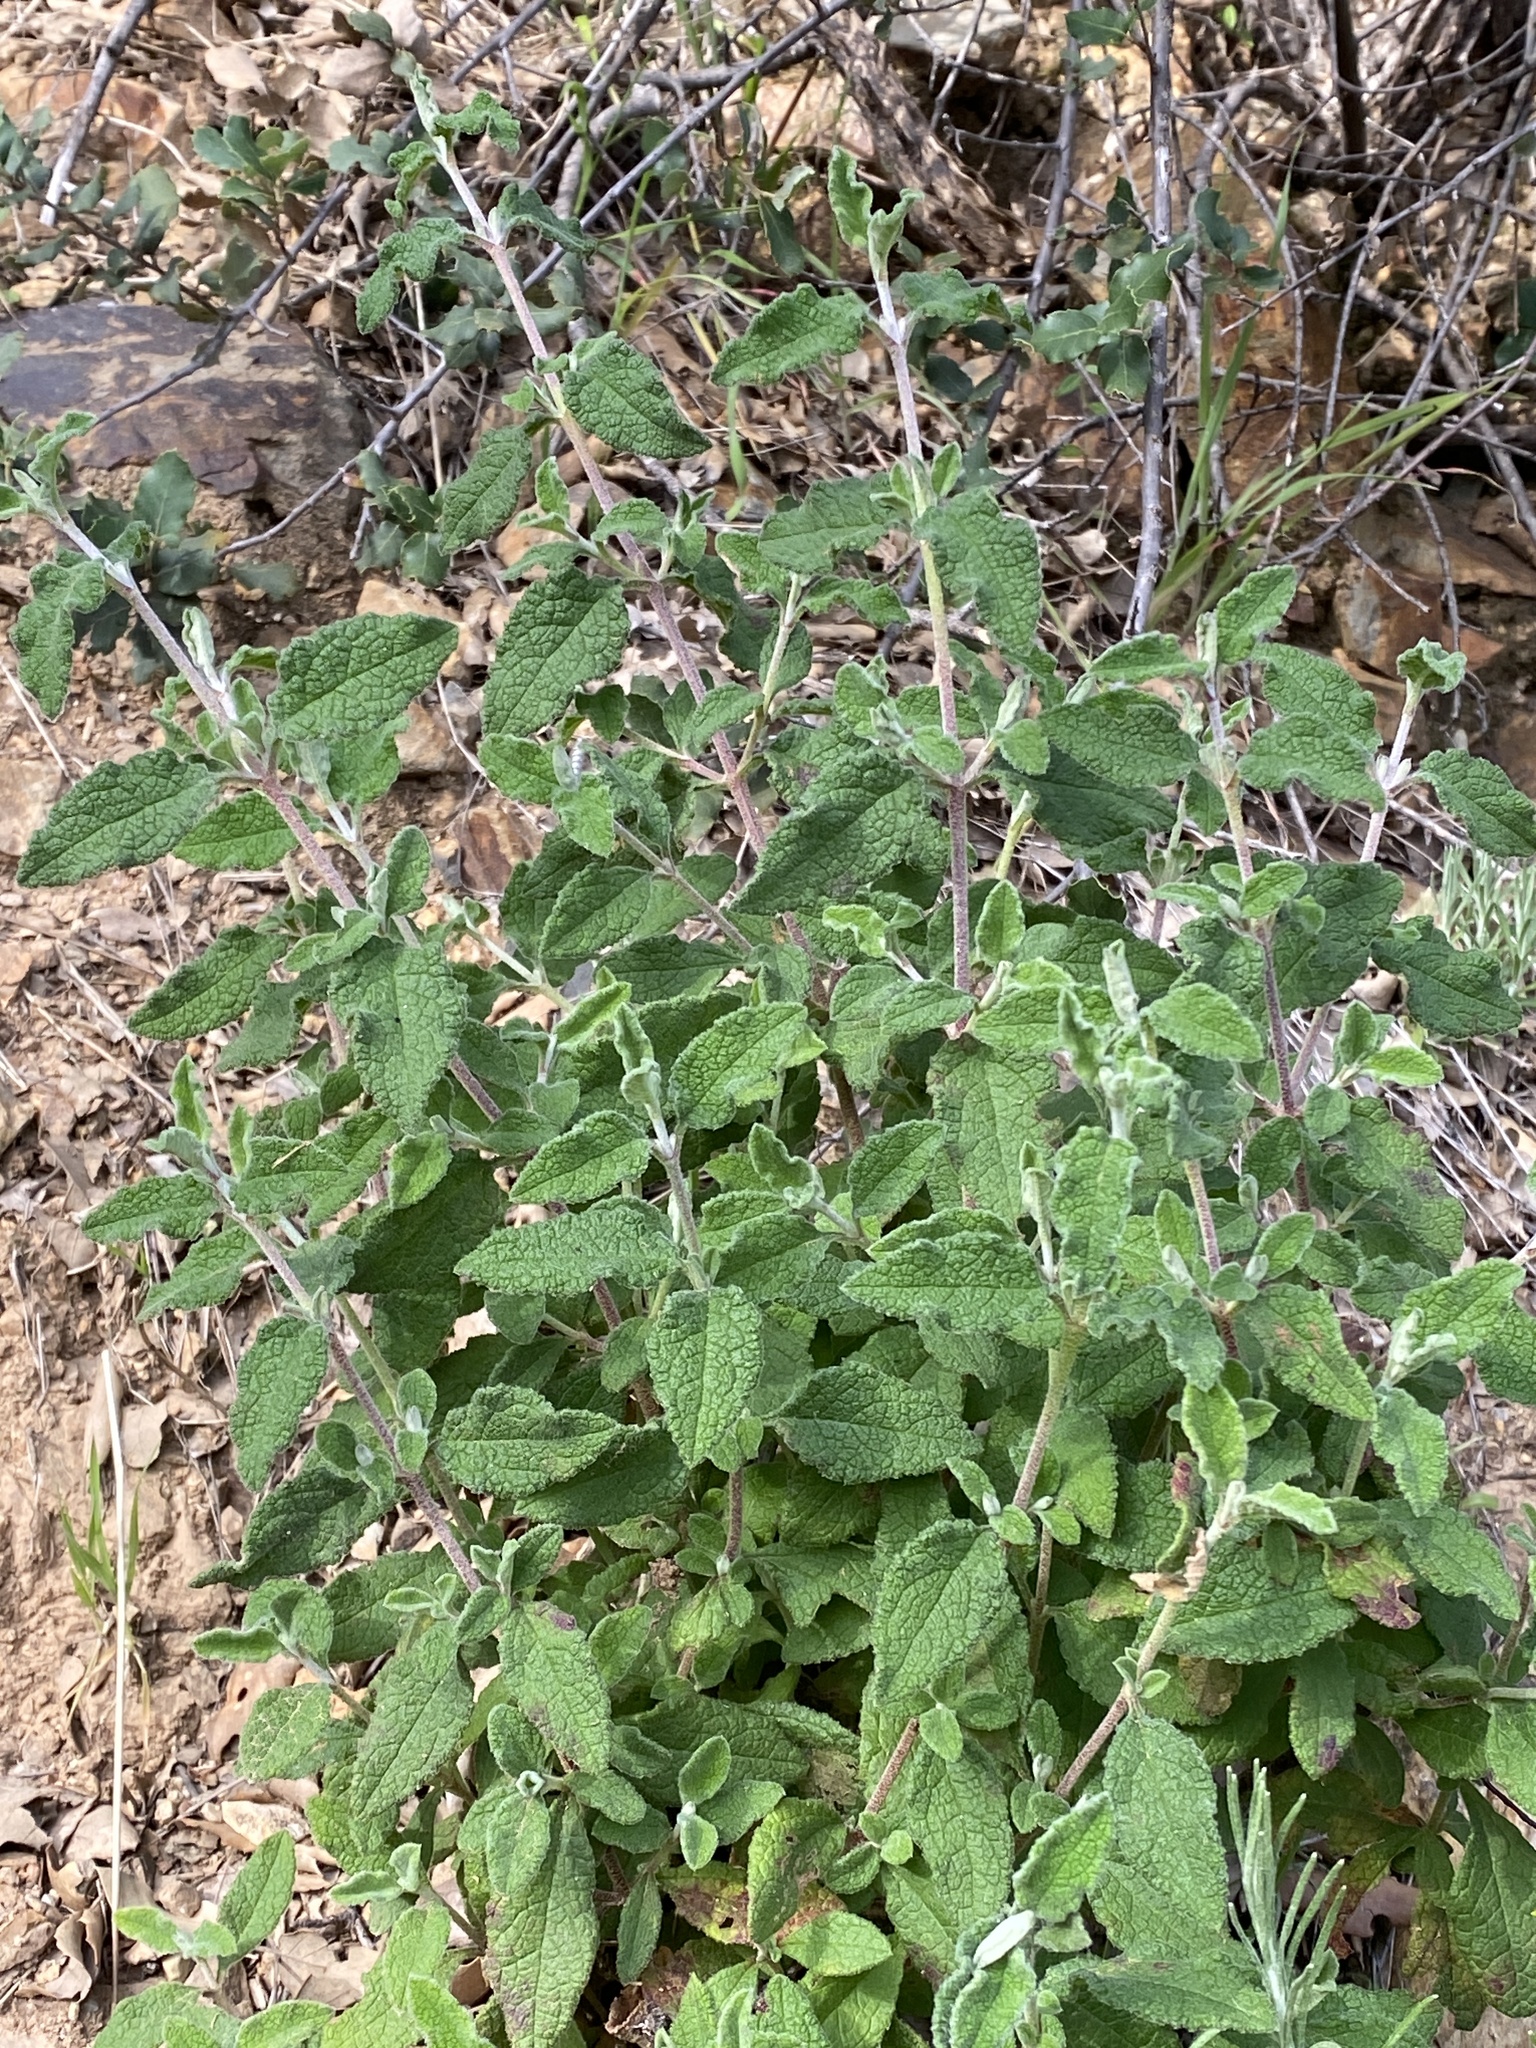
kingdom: Plantae
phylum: Tracheophyta
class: Magnoliopsida
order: Malvales
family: Cistaceae
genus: Cistus
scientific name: Cistus salviifolius
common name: Salvia cistus
